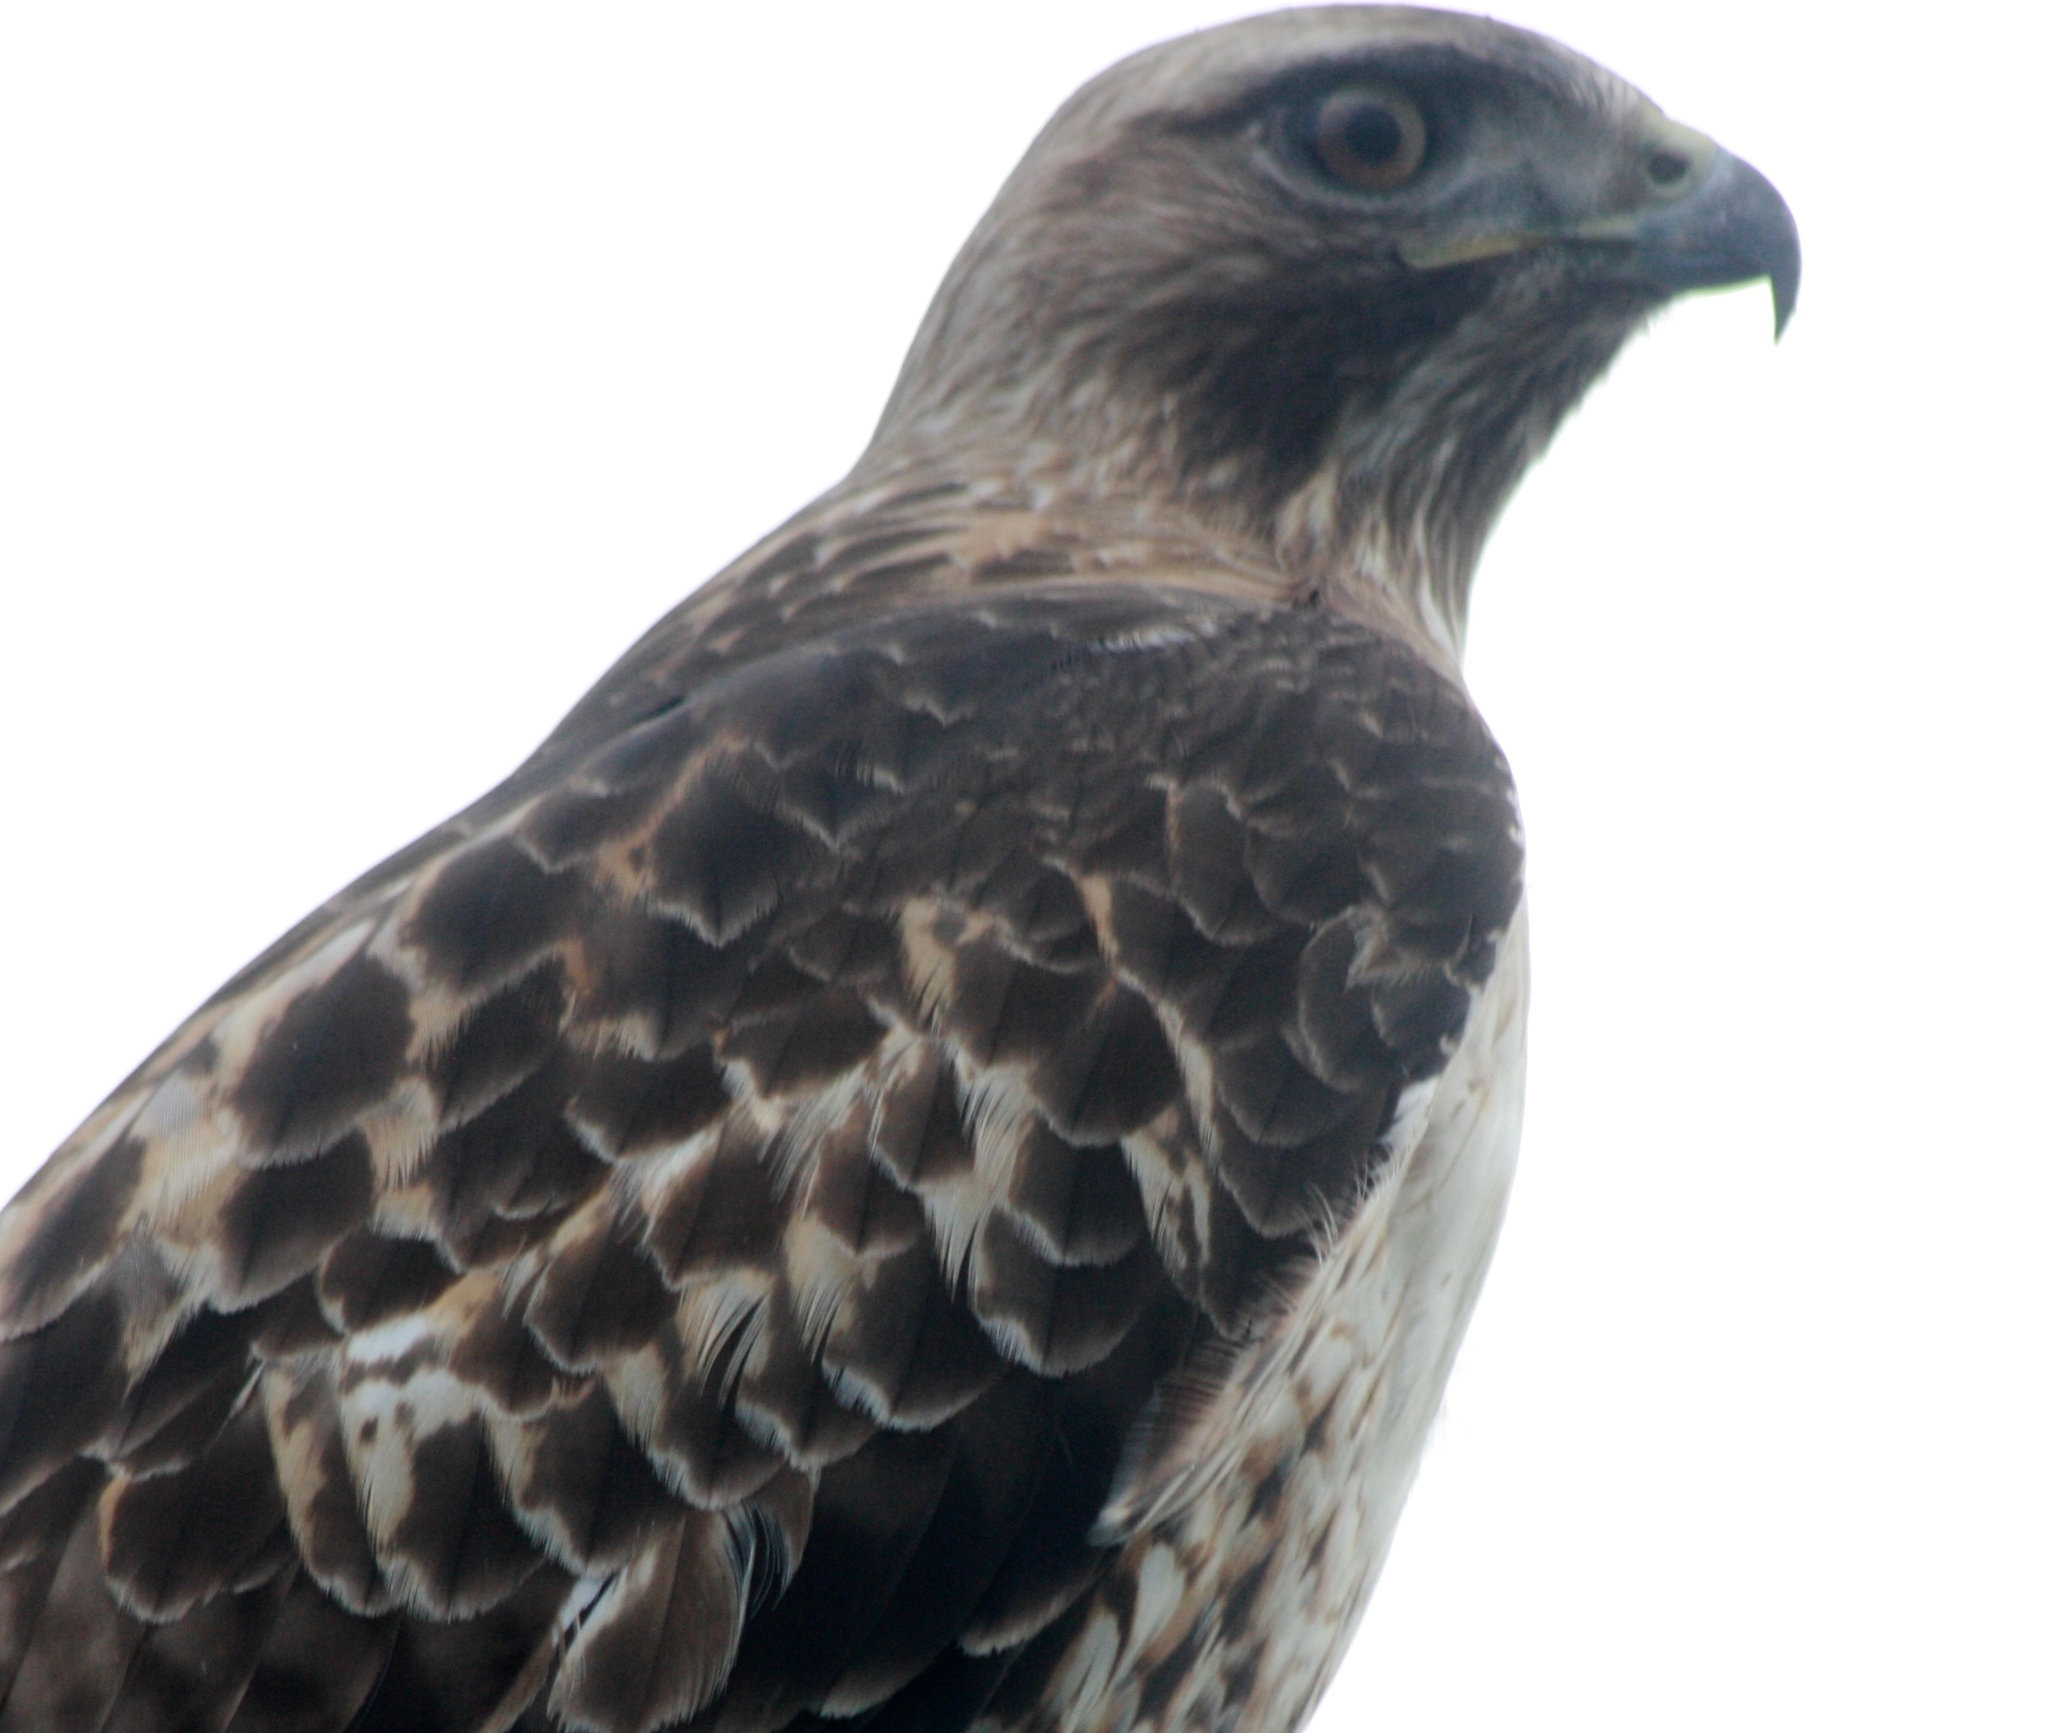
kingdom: Animalia
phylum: Chordata
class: Aves
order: Accipitriformes
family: Accipitridae
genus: Buteo
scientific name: Buteo jamaicensis
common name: Red-tailed hawk
